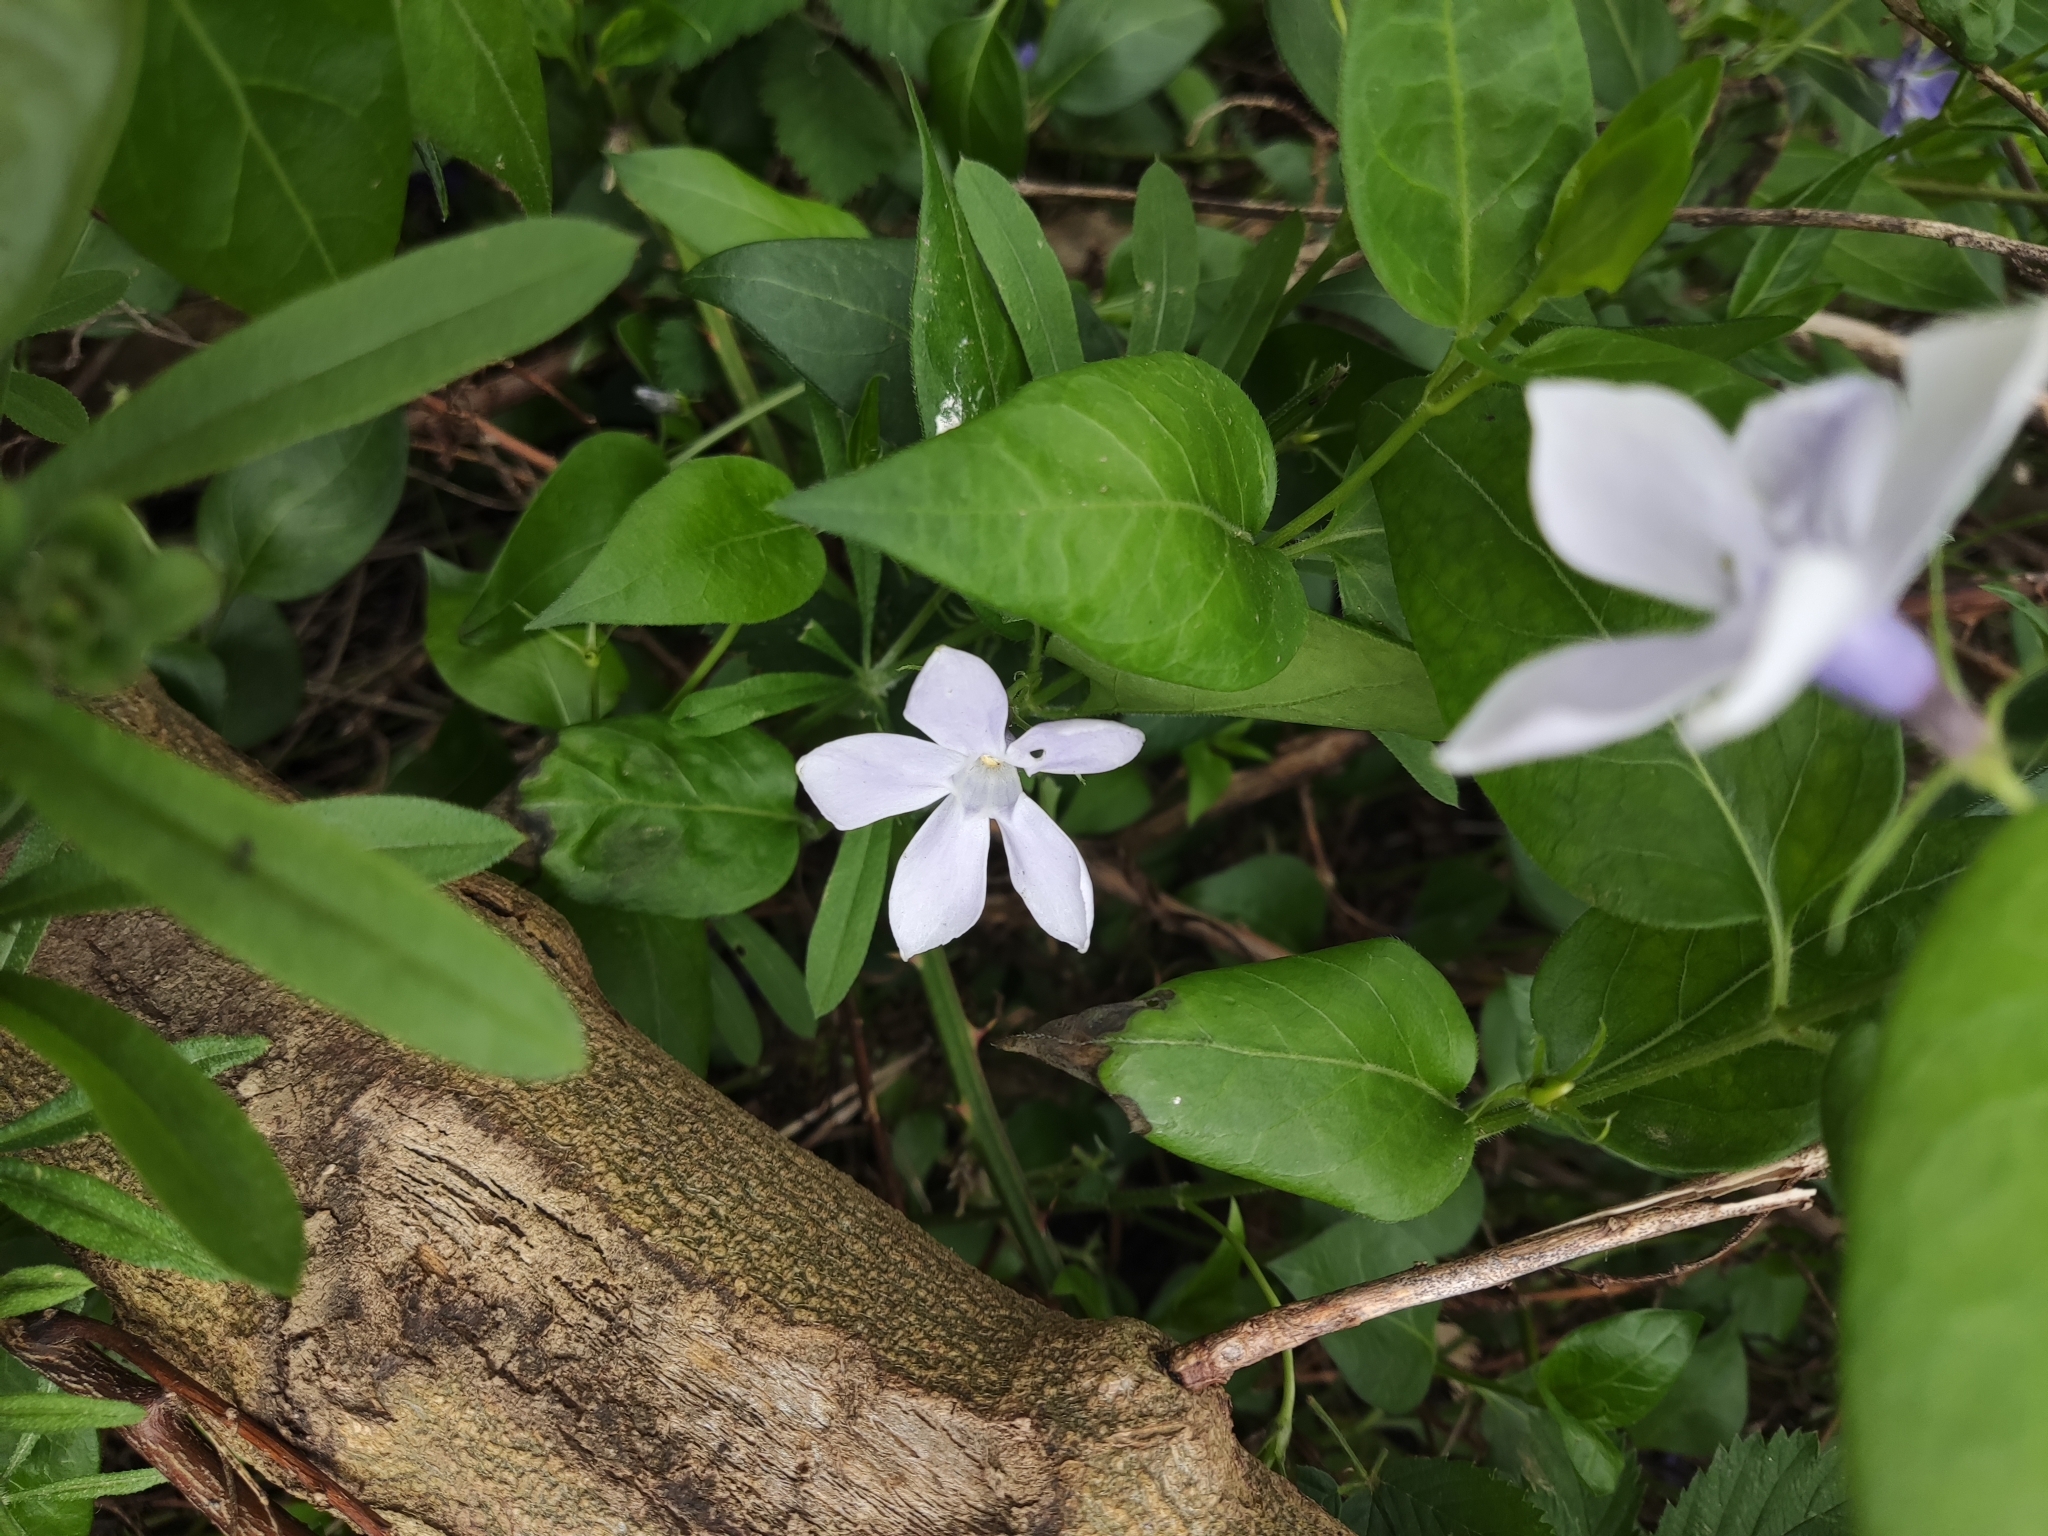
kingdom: Plantae
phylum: Tracheophyta
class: Magnoliopsida
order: Gentianales
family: Apocynaceae
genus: Vinca
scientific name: Vinca major
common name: Greater periwinkle
